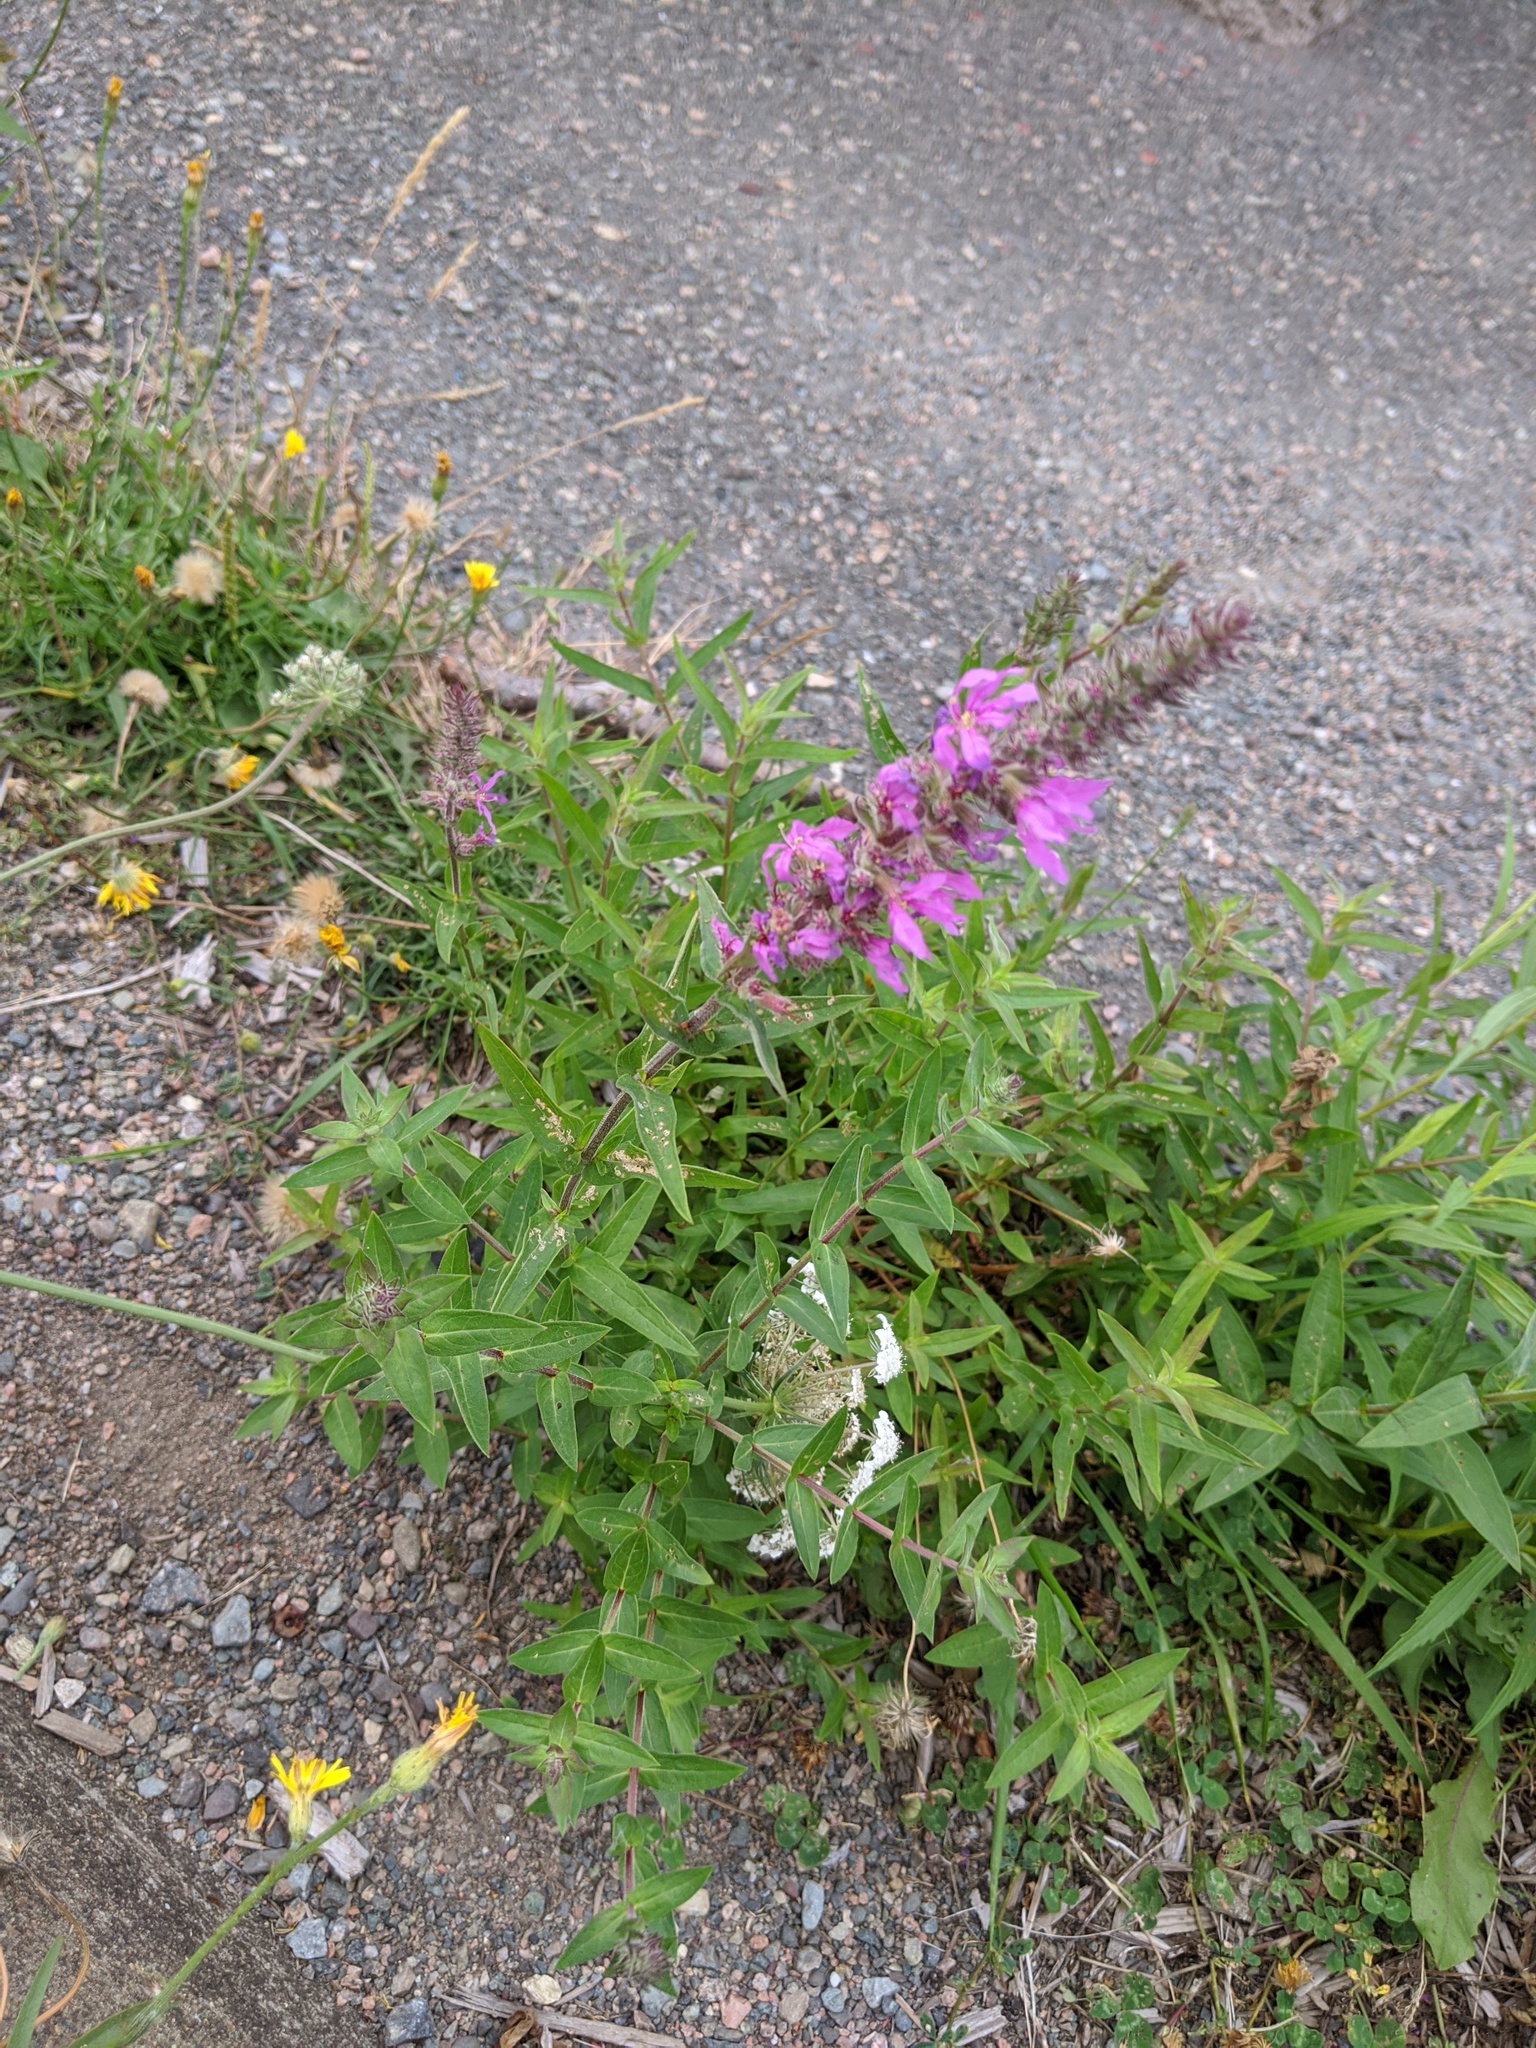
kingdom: Plantae
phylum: Tracheophyta
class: Magnoliopsida
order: Myrtales
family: Lythraceae
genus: Lythrum
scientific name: Lythrum salicaria
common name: Purple loosestrife
